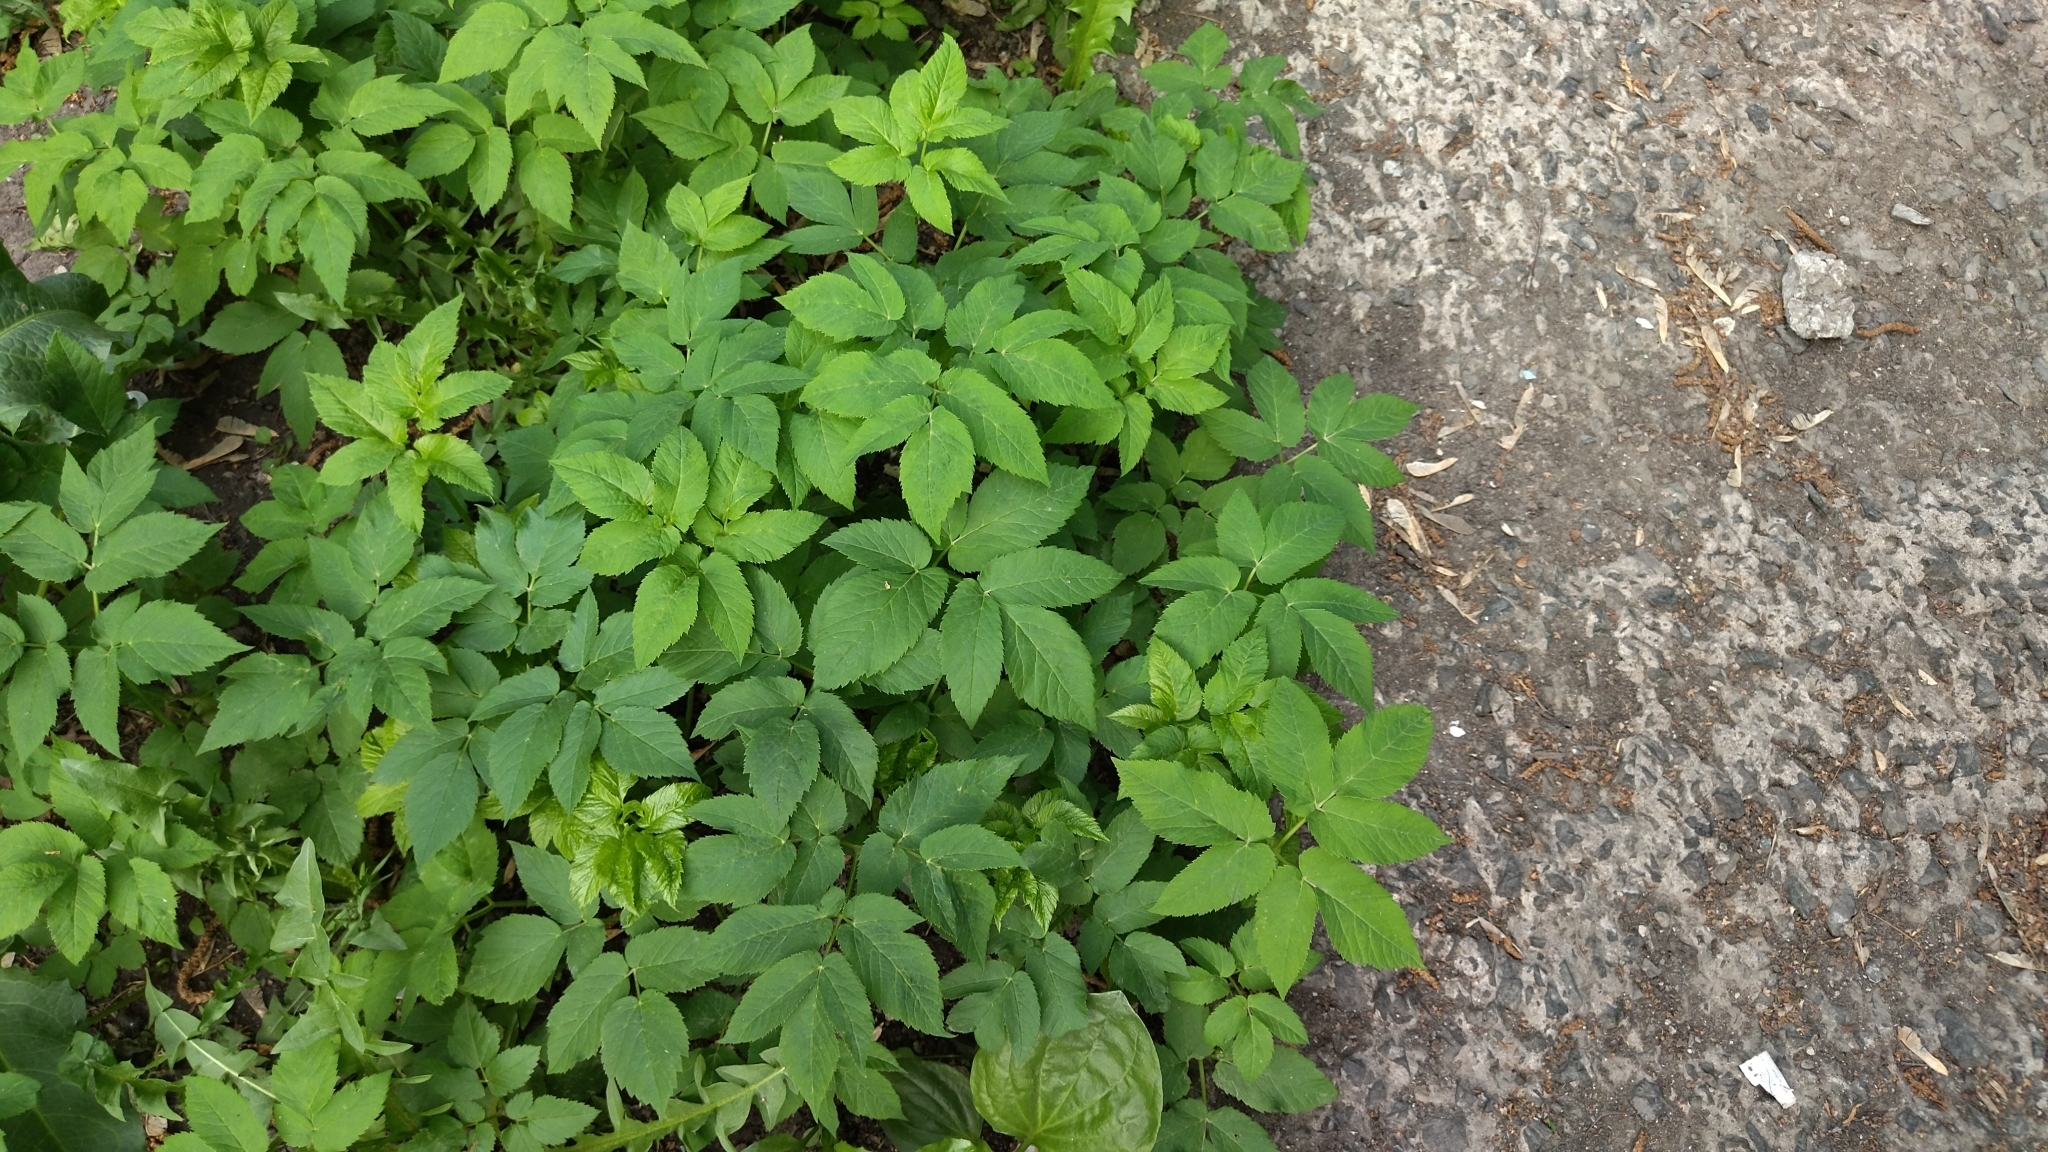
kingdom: Plantae
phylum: Tracheophyta
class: Magnoliopsida
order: Apiales
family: Apiaceae
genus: Aegopodium
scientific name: Aegopodium podagraria
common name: Ground-elder
